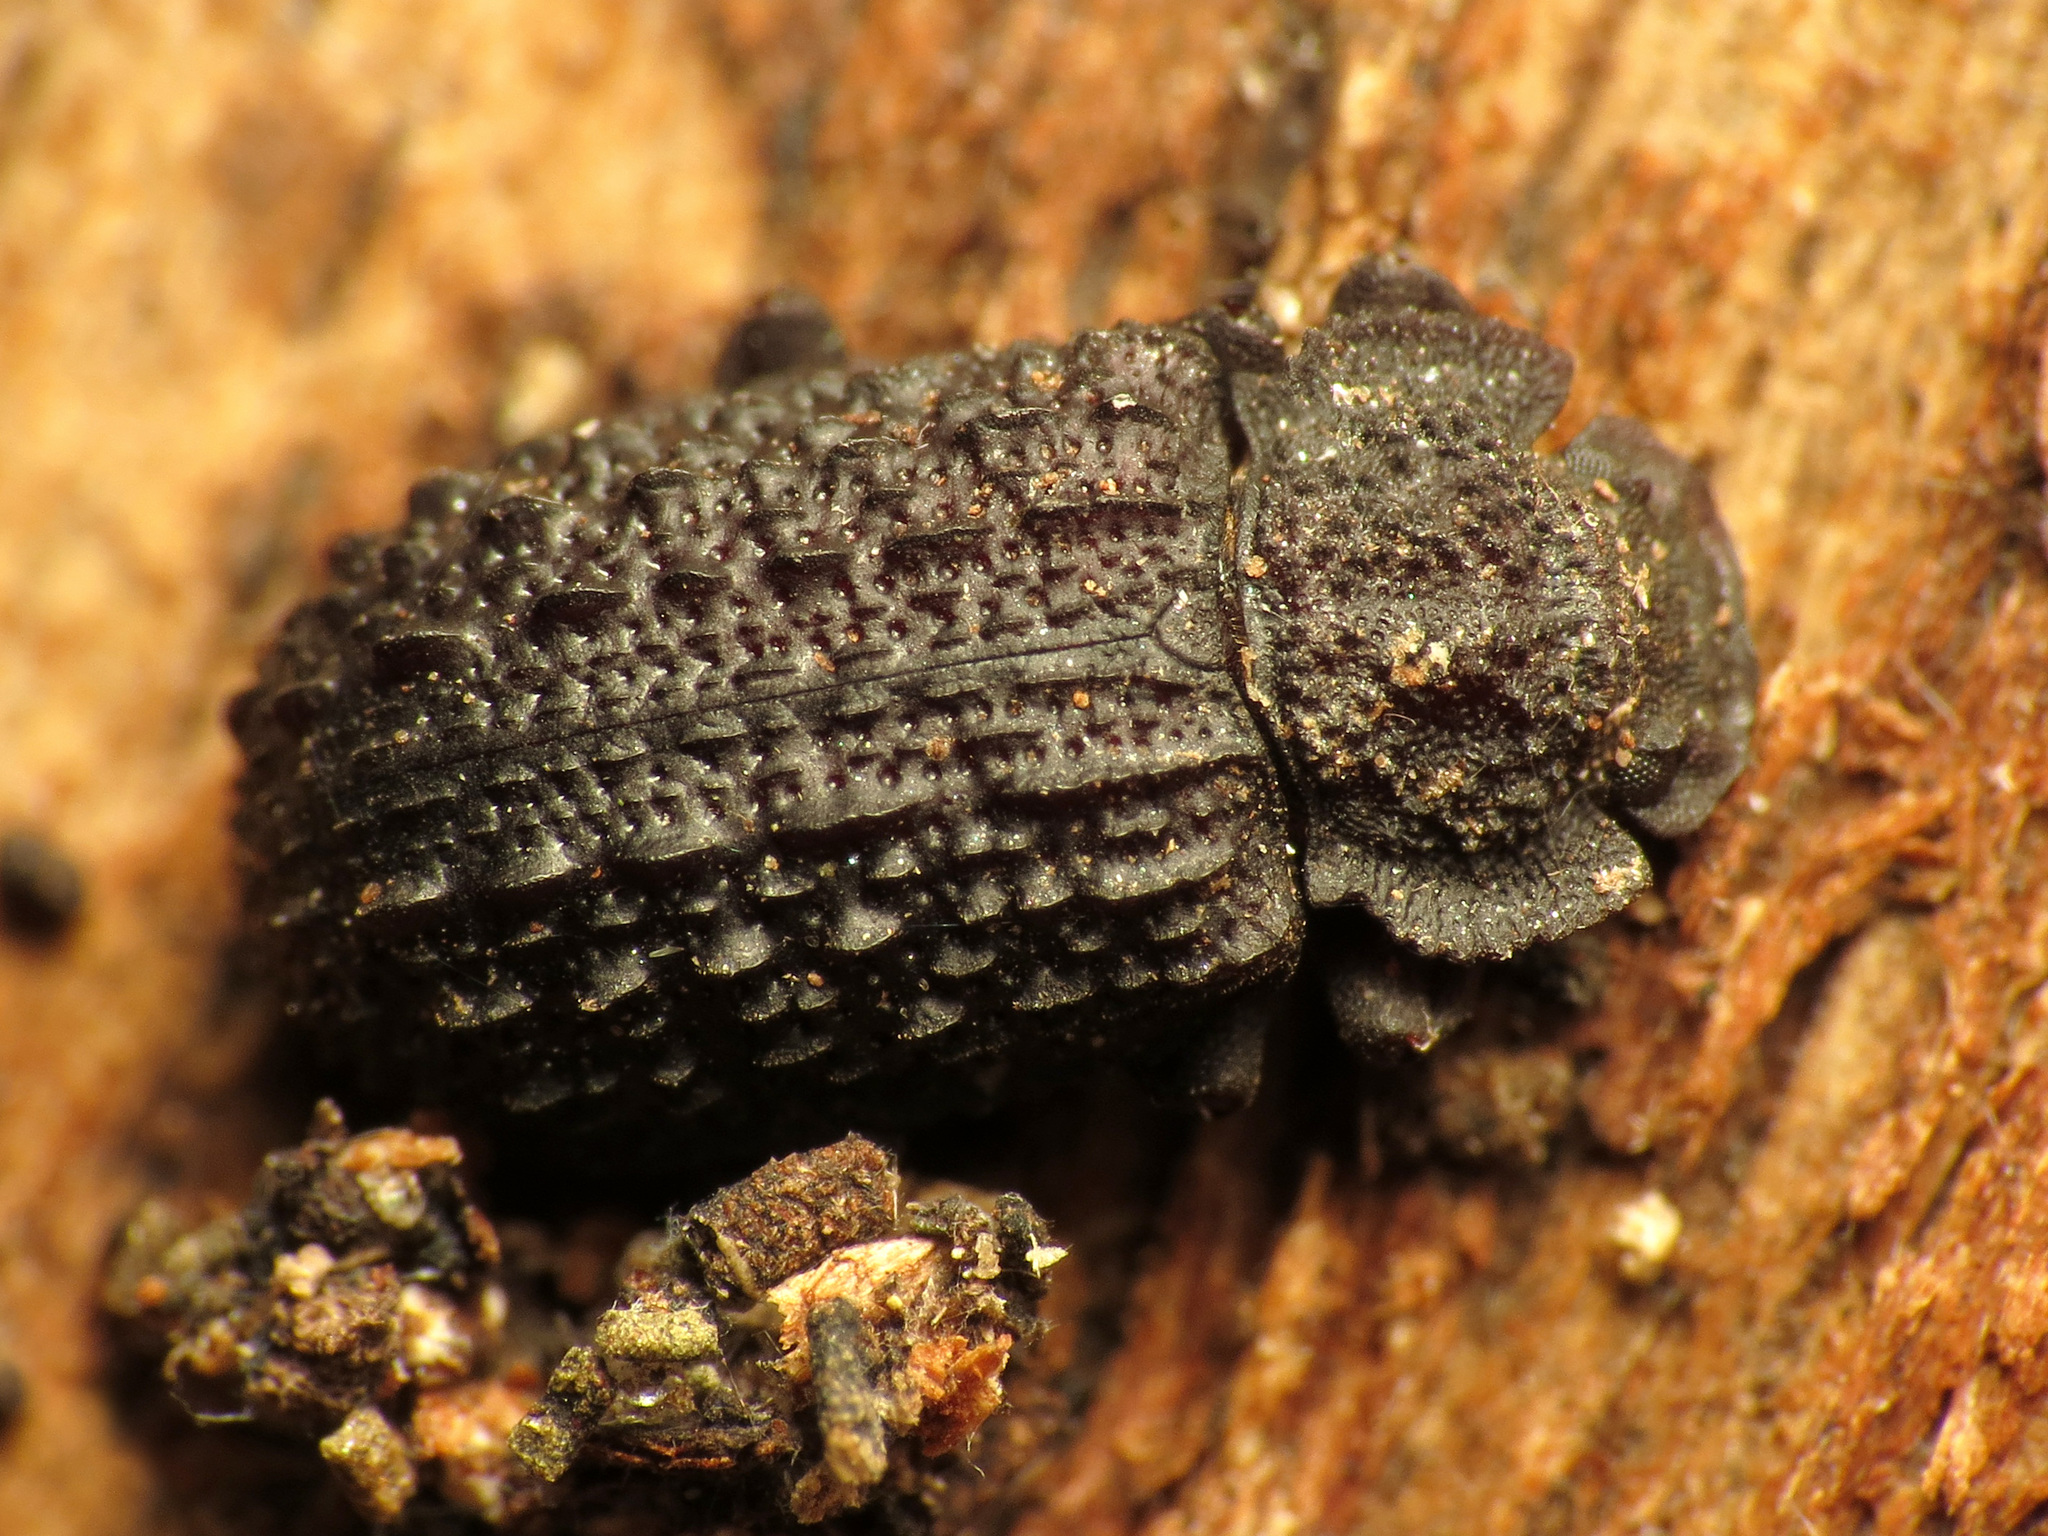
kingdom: Animalia
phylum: Arthropoda
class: Insecta
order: Coleoptera
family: Tenebrionidae
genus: Bolitophagus
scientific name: Bolitophagus corticola
